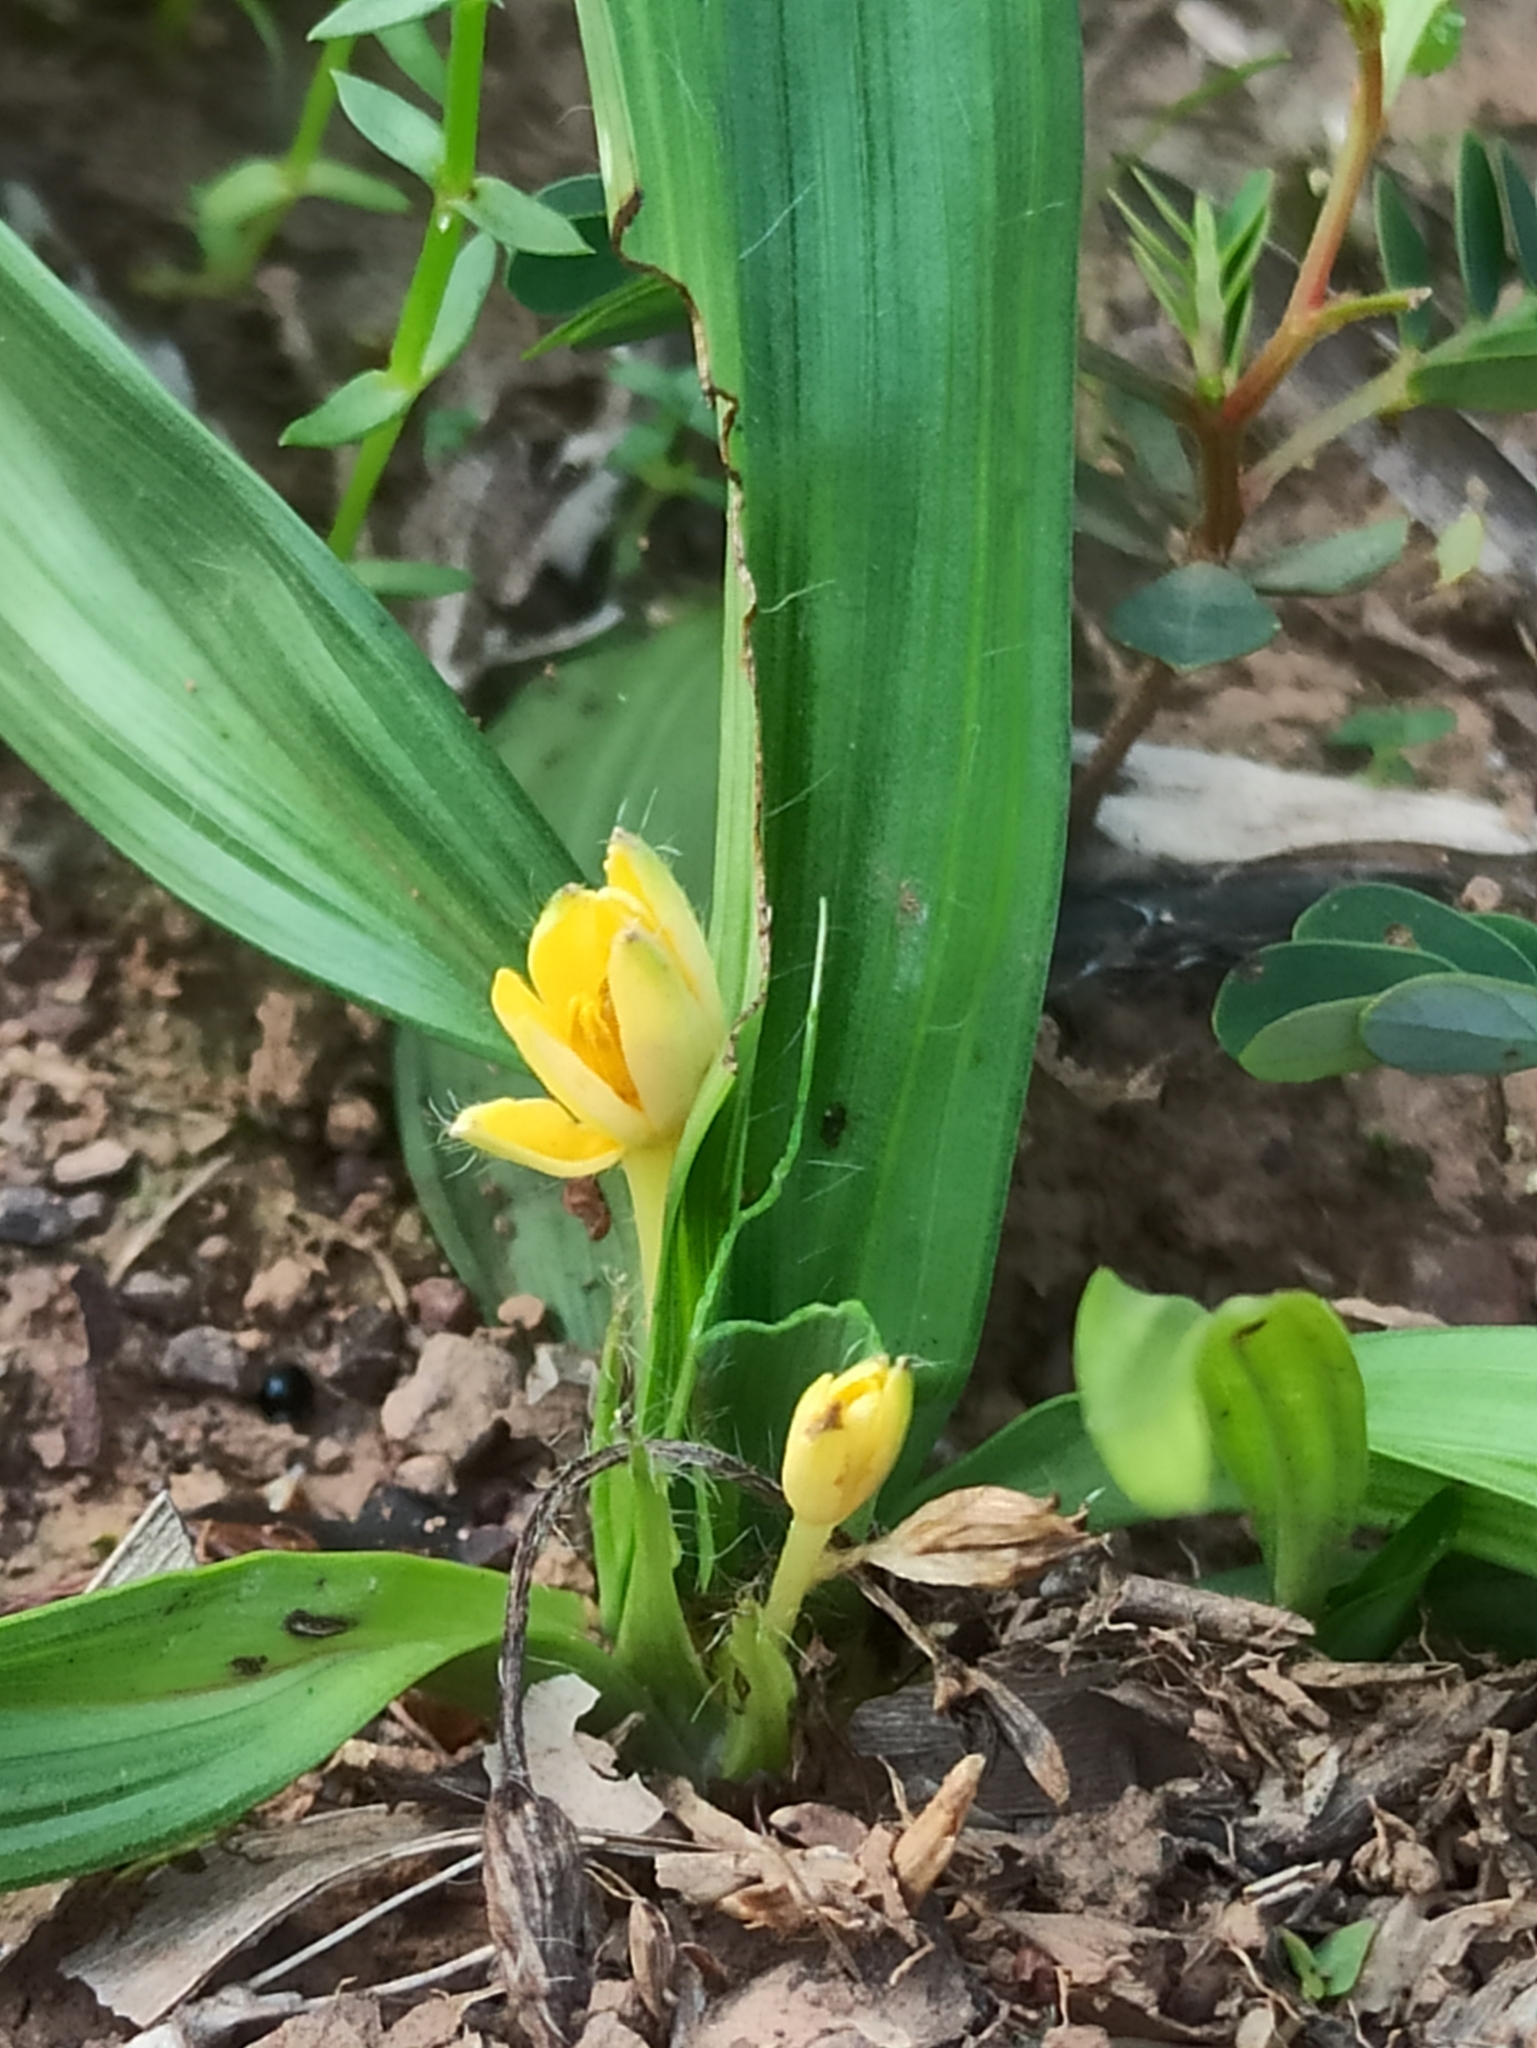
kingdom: Plantae
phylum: Tracheophyta
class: Liliopsida
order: Asparagales
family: Hypoxidaceae
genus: Curculigo
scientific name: Curculigo orchioides
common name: Golden eye-grass
